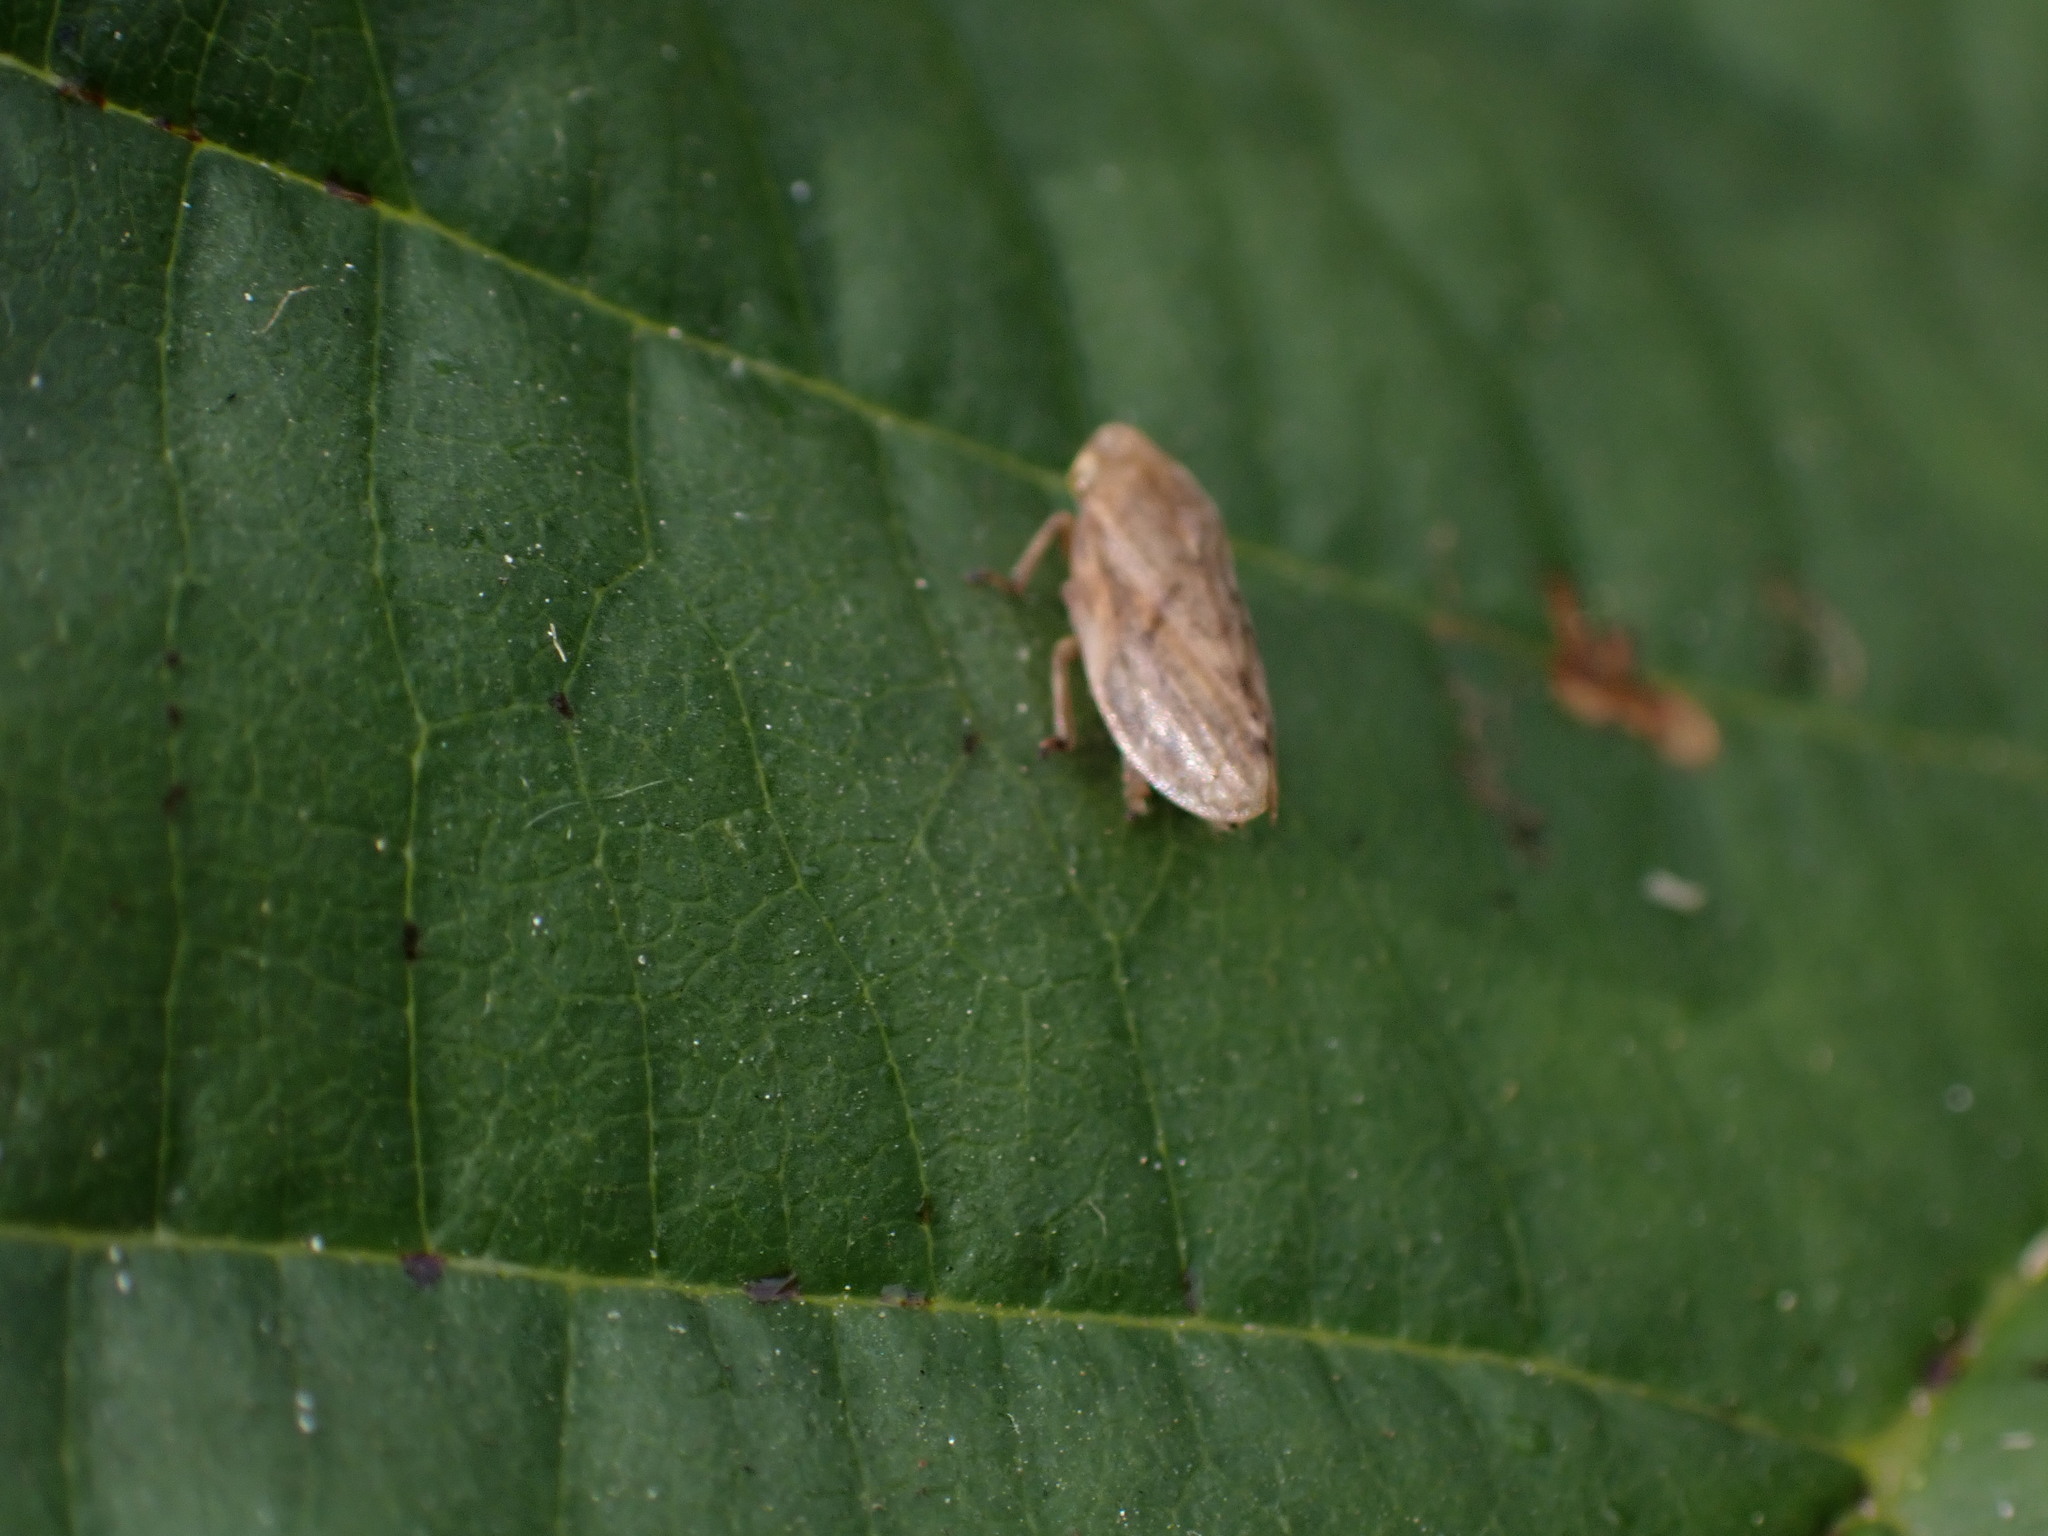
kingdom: Animalia
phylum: Arthropoda
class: Insecta
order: Hemiptera
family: Aphrophoridae
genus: Philaenus
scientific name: Philaenus spumarius
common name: Meadow spittlebug
